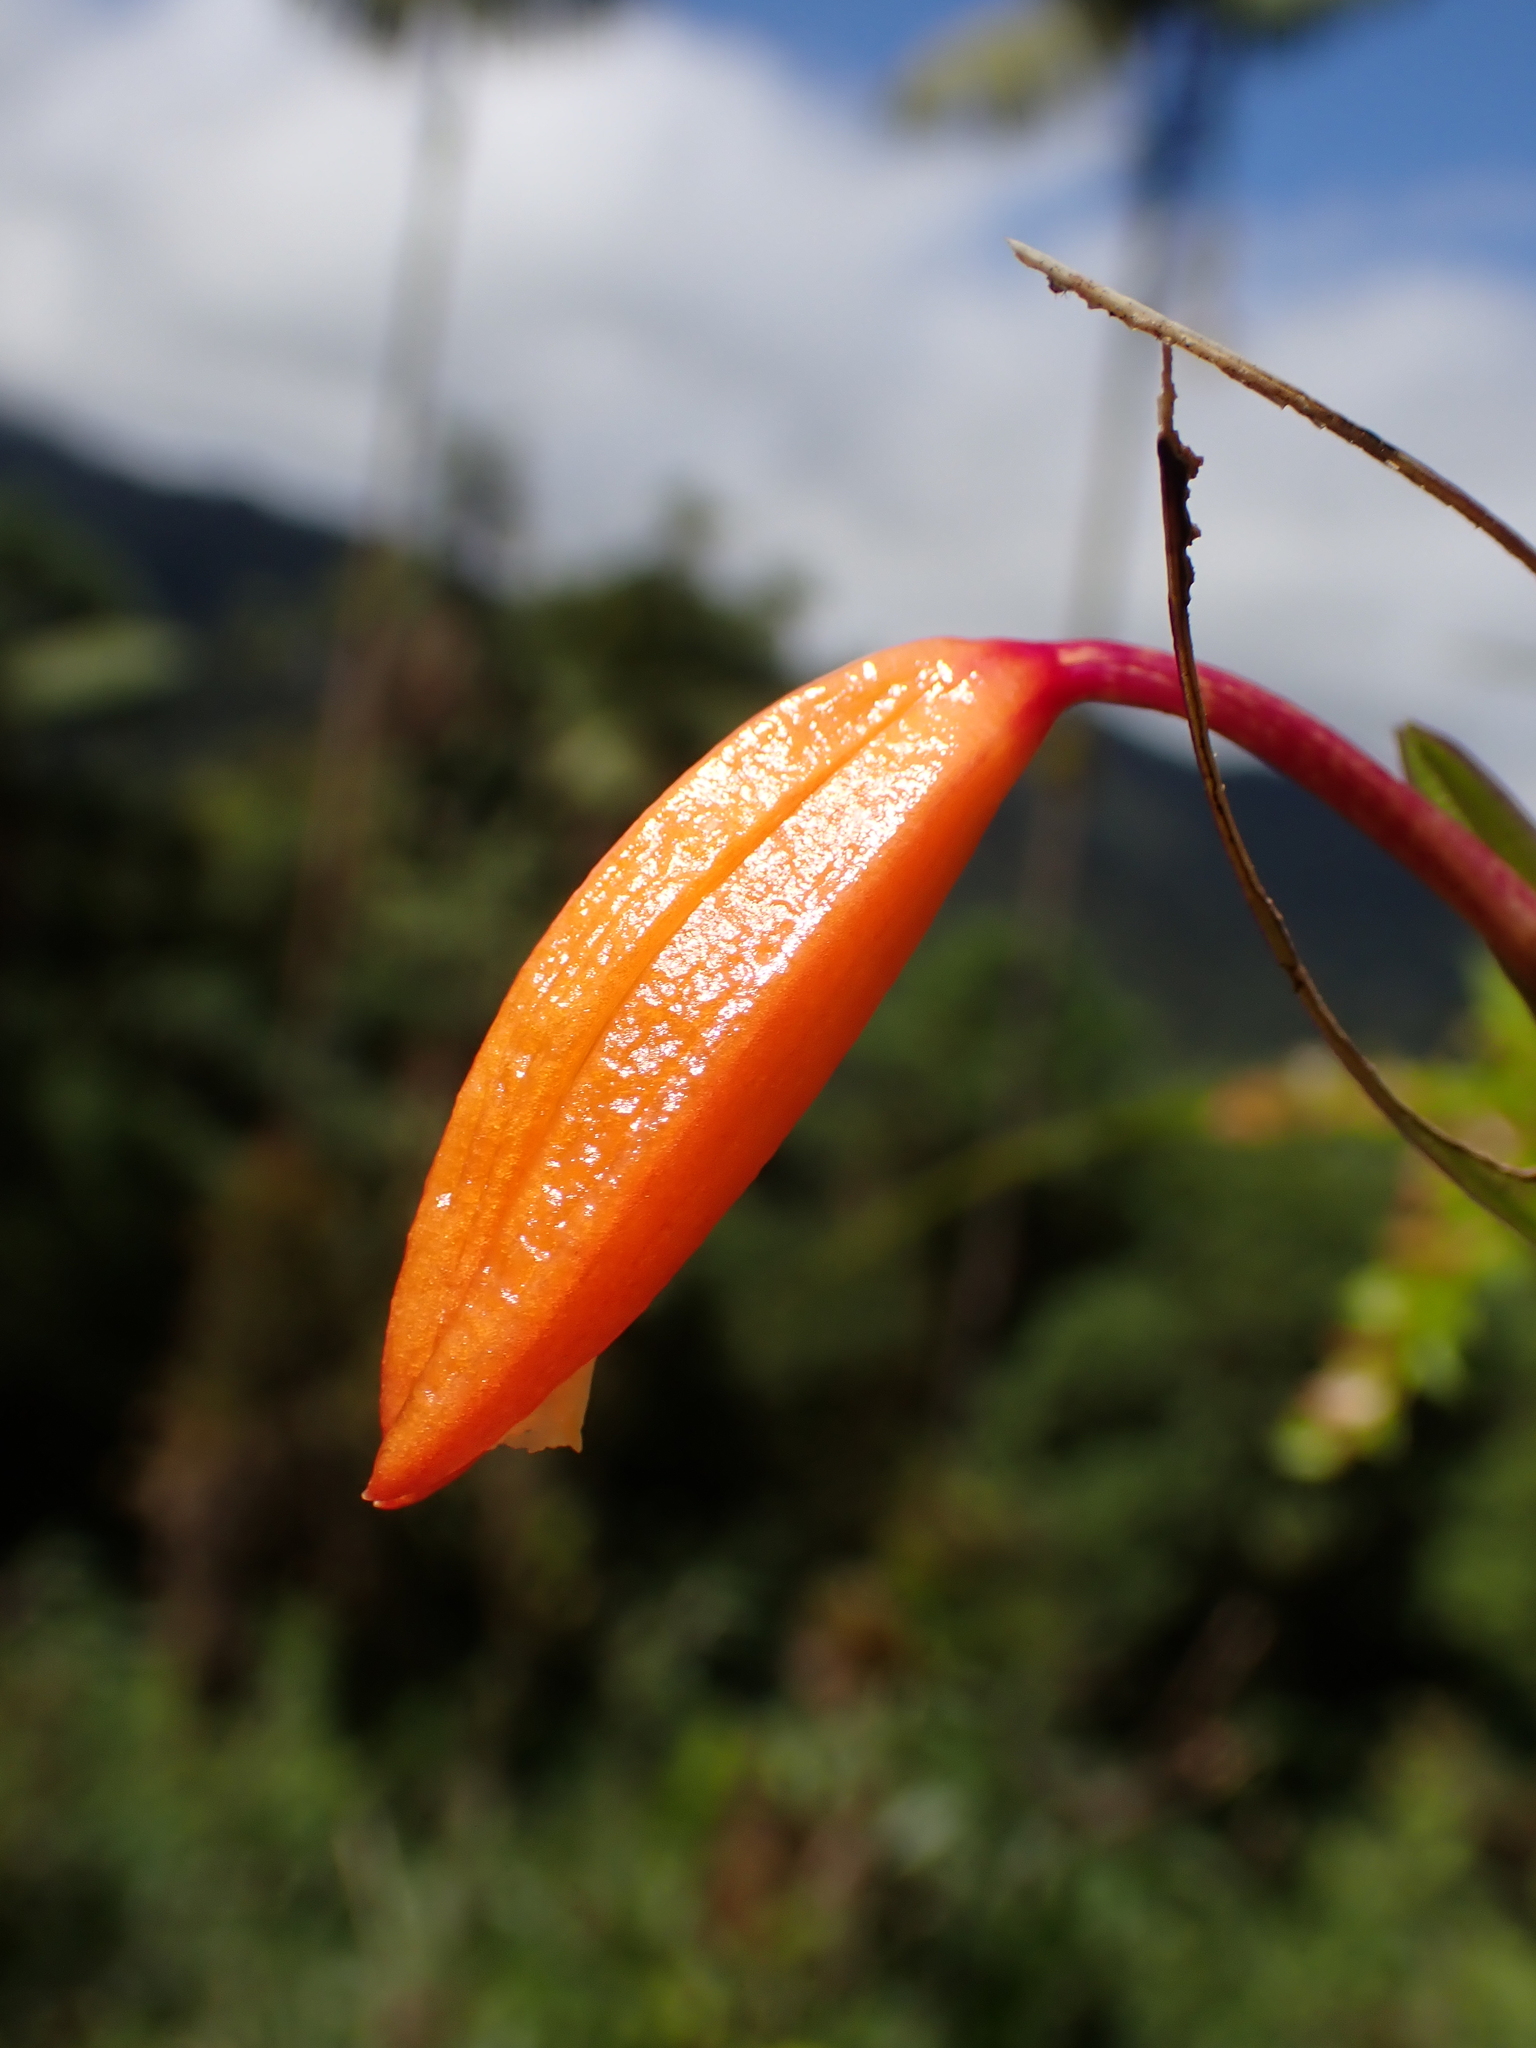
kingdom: Plantae
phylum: Tracheophyta
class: Liliopsida
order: Asparagales
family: Orchidaceae
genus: Sobralia
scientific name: Sobralia crocea
